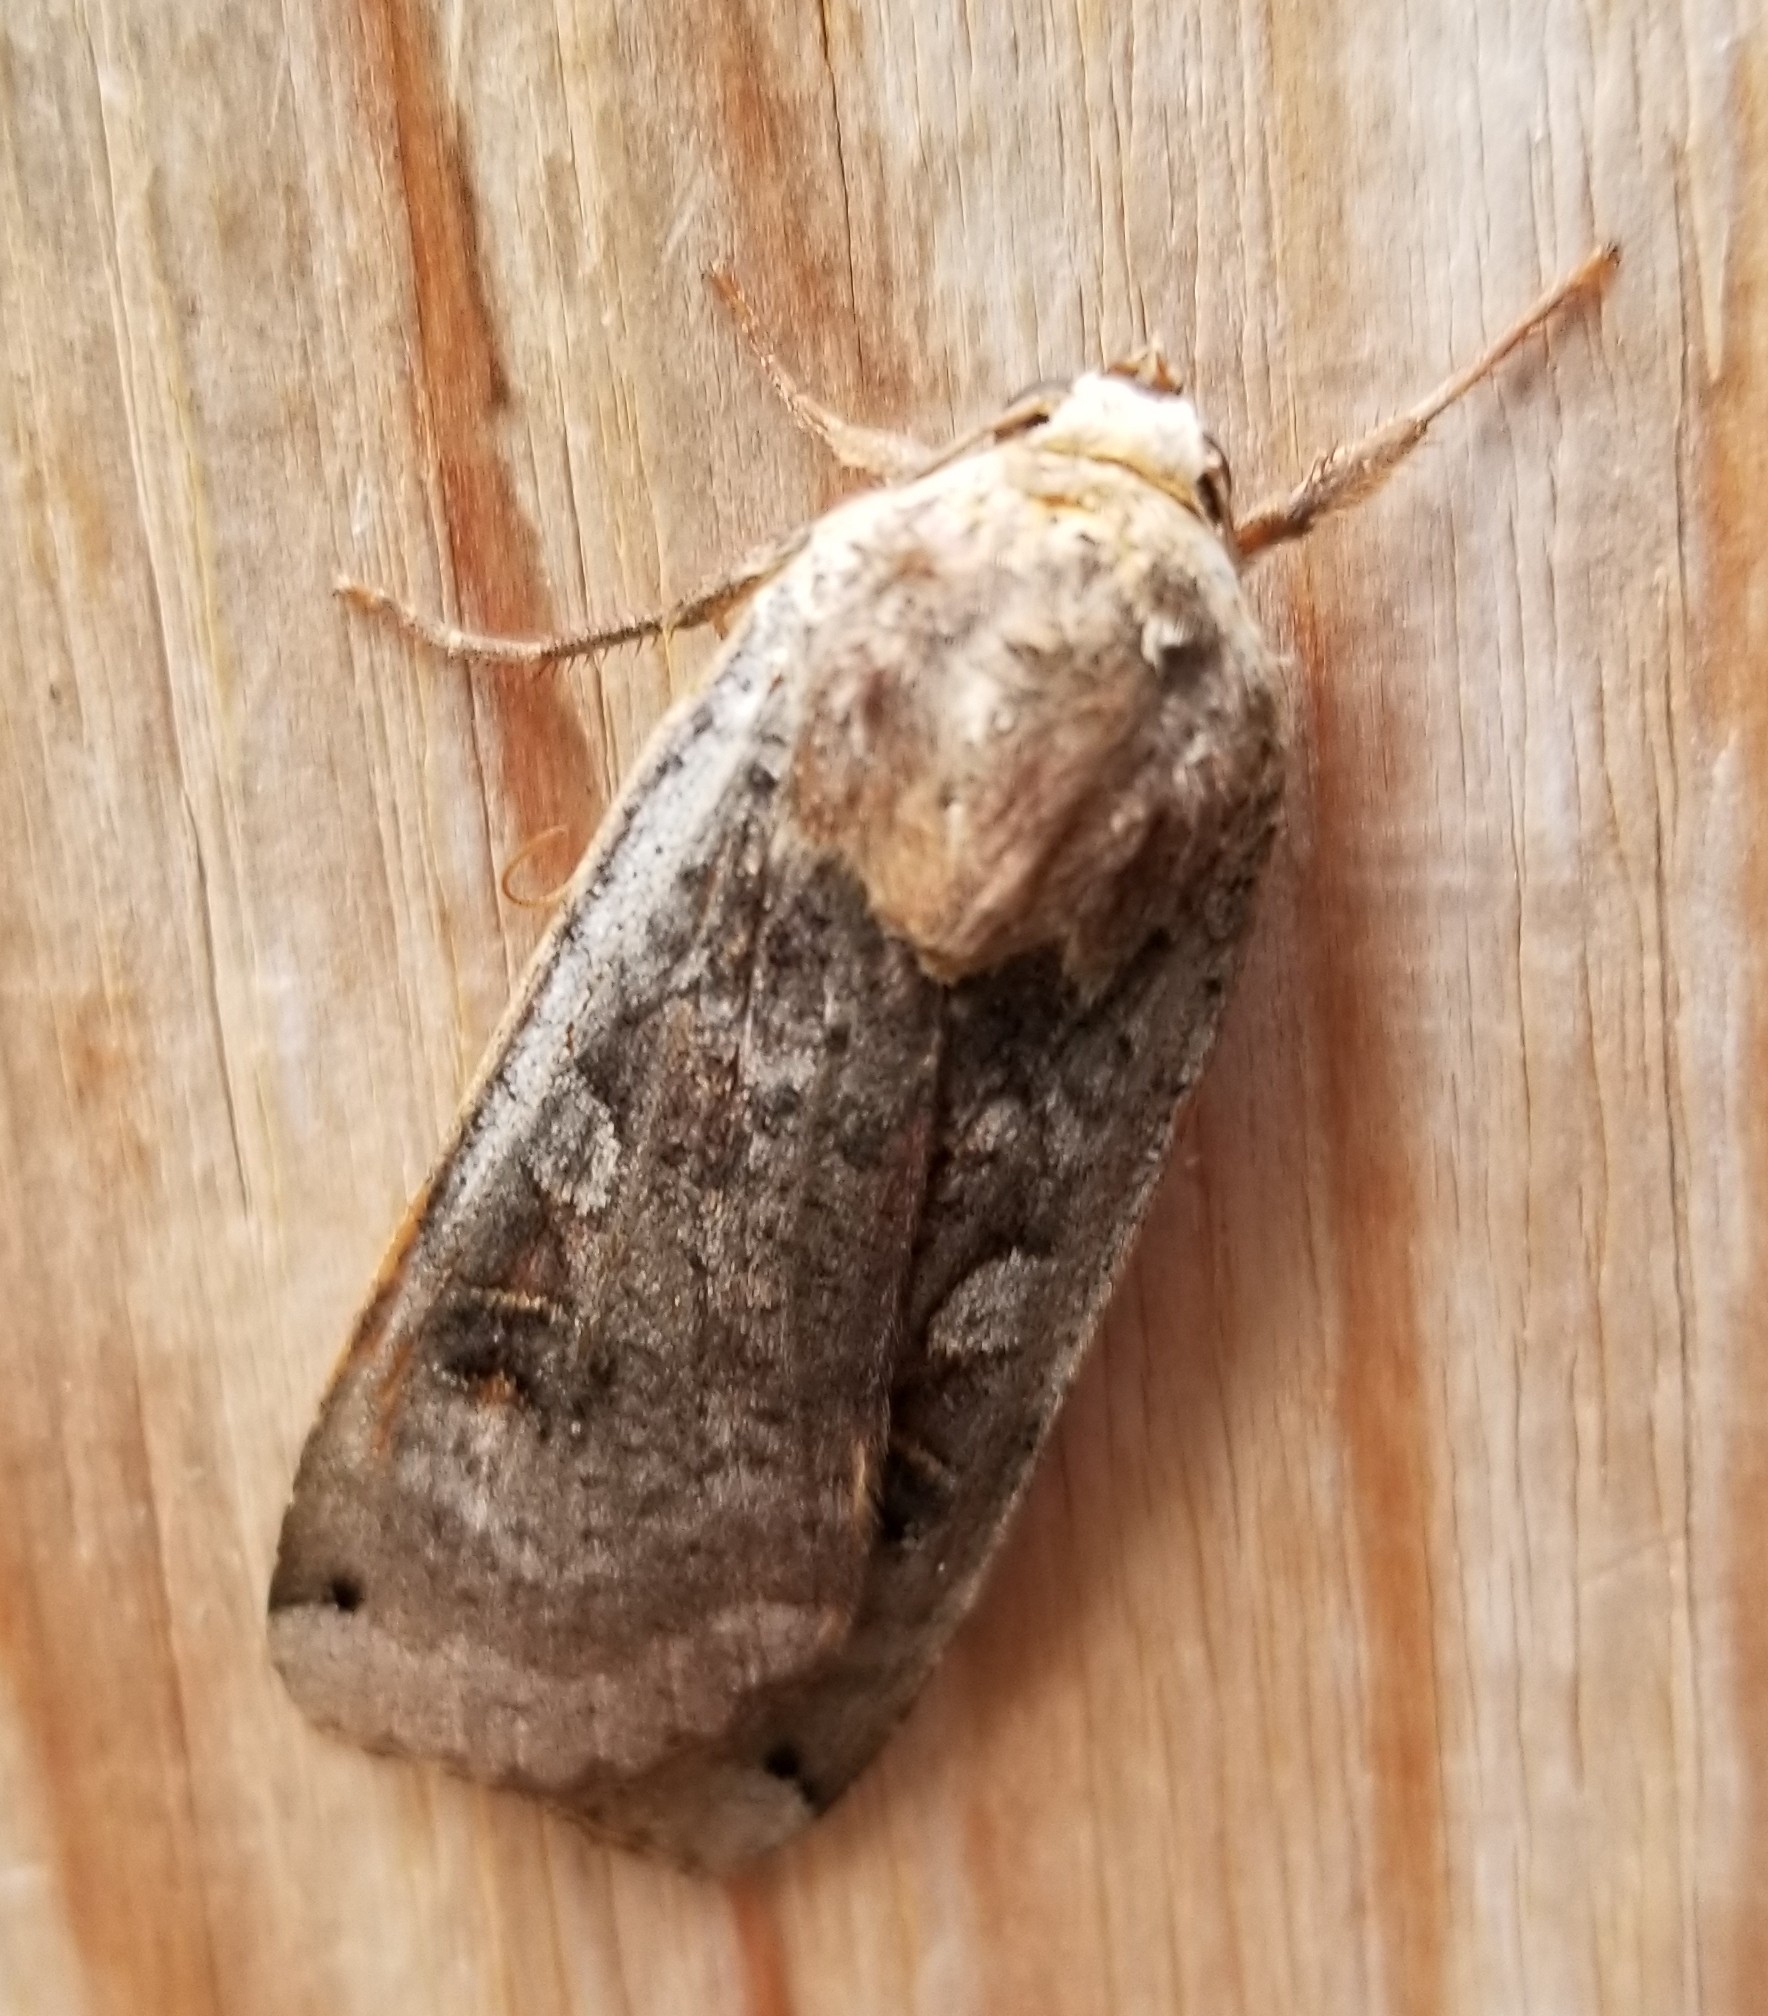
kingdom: Animalia
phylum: Arthropoda
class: Insecta
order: Lepidoptera
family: Noctuidae
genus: Xestia
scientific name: Xestia smithii
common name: Smith's dart
